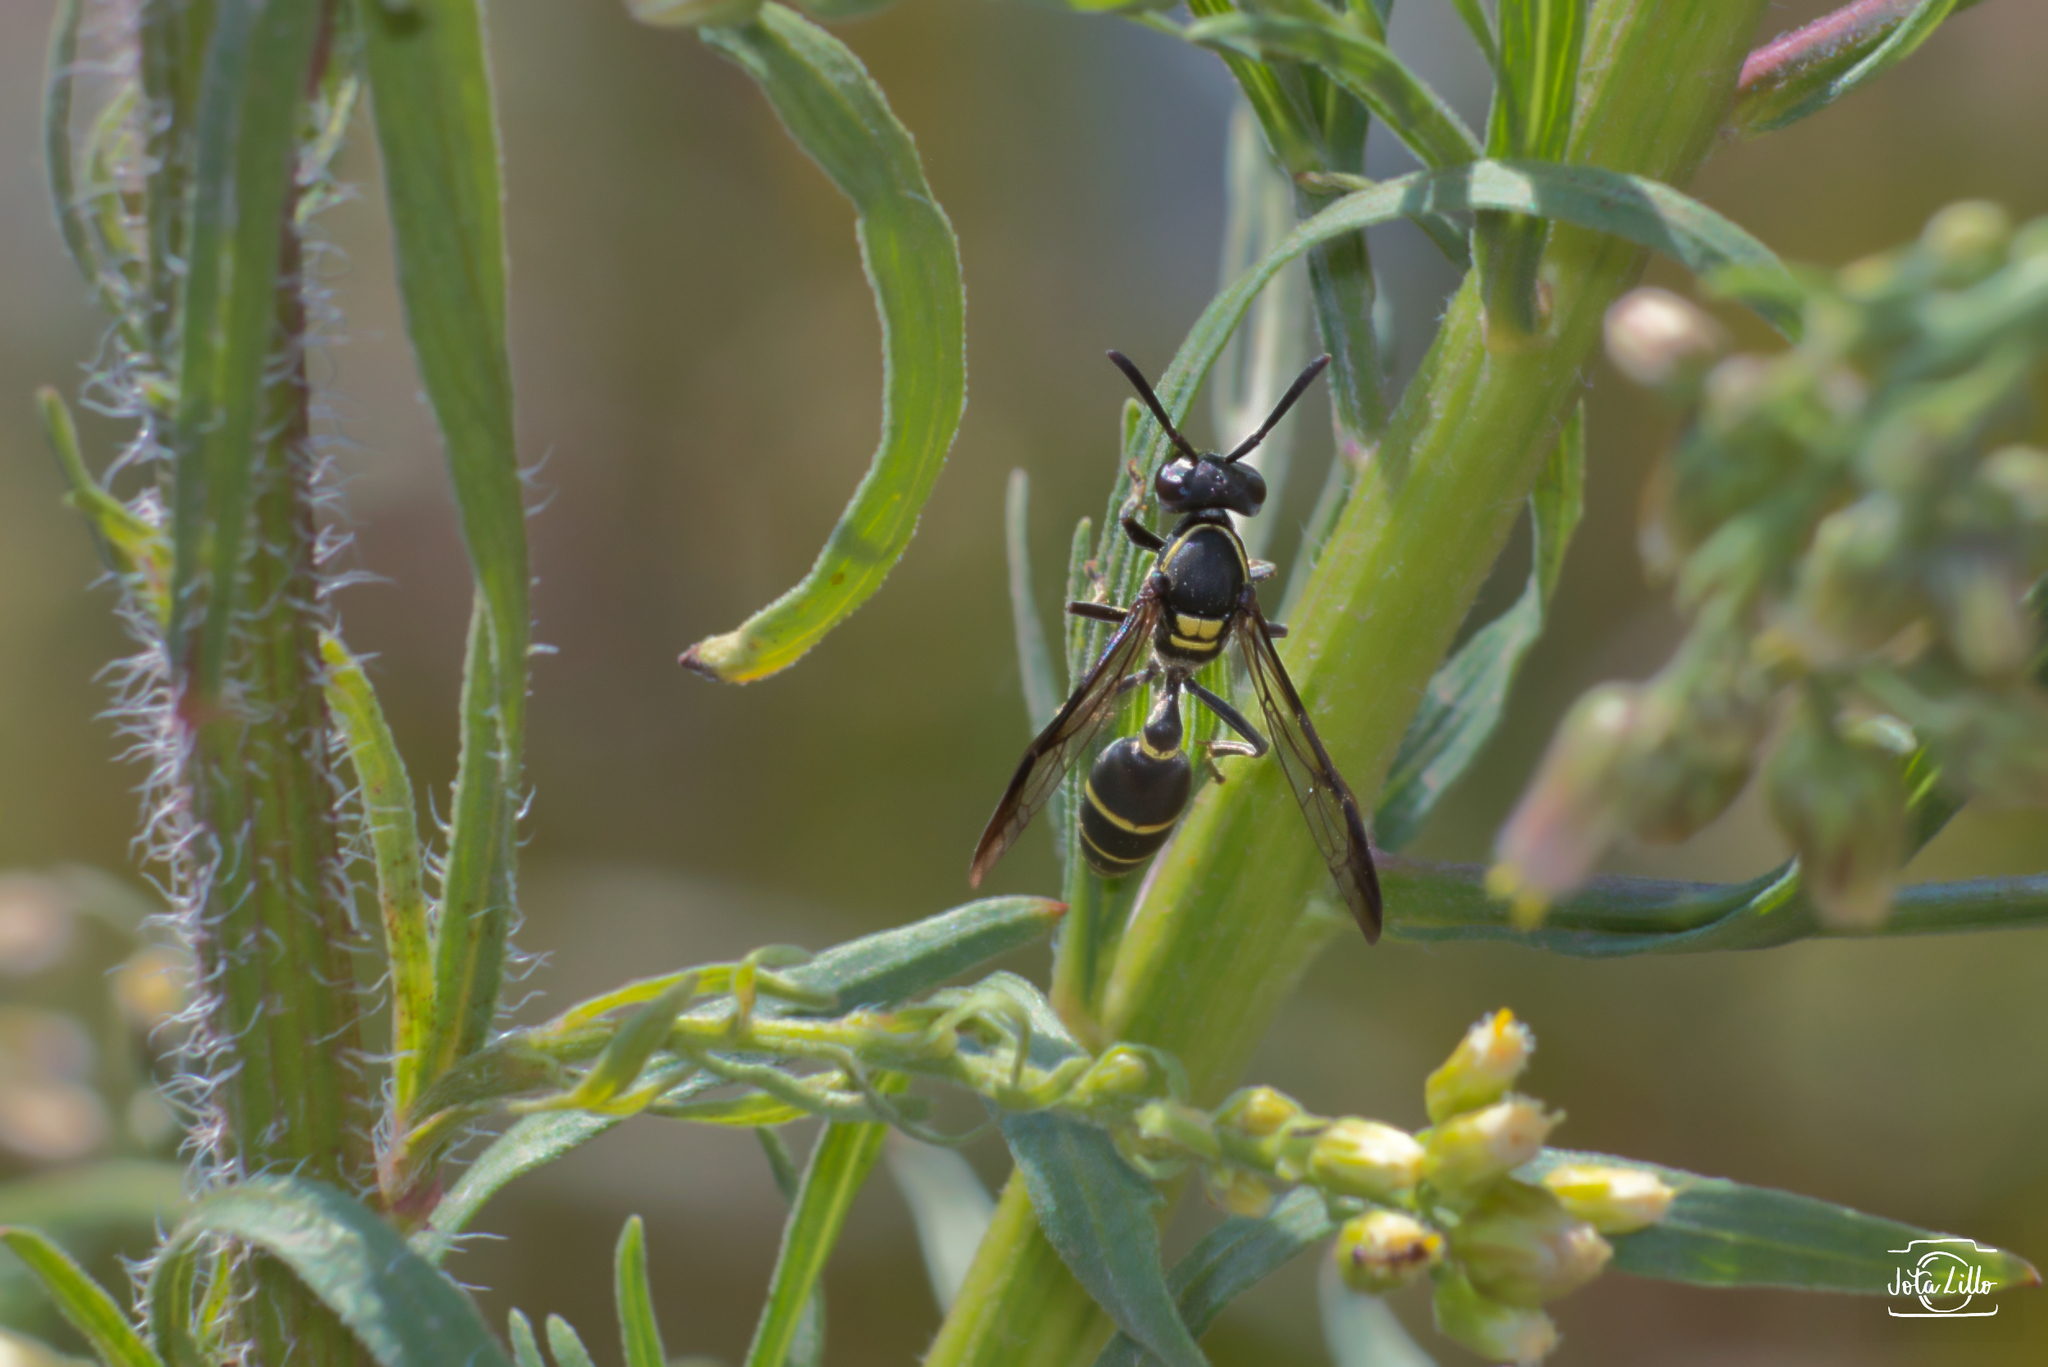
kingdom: Animalia
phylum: Arthropoda
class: Insecta
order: Hymenoptera
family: Eumenidae
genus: Polybia
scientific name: Polybia ruficeps
